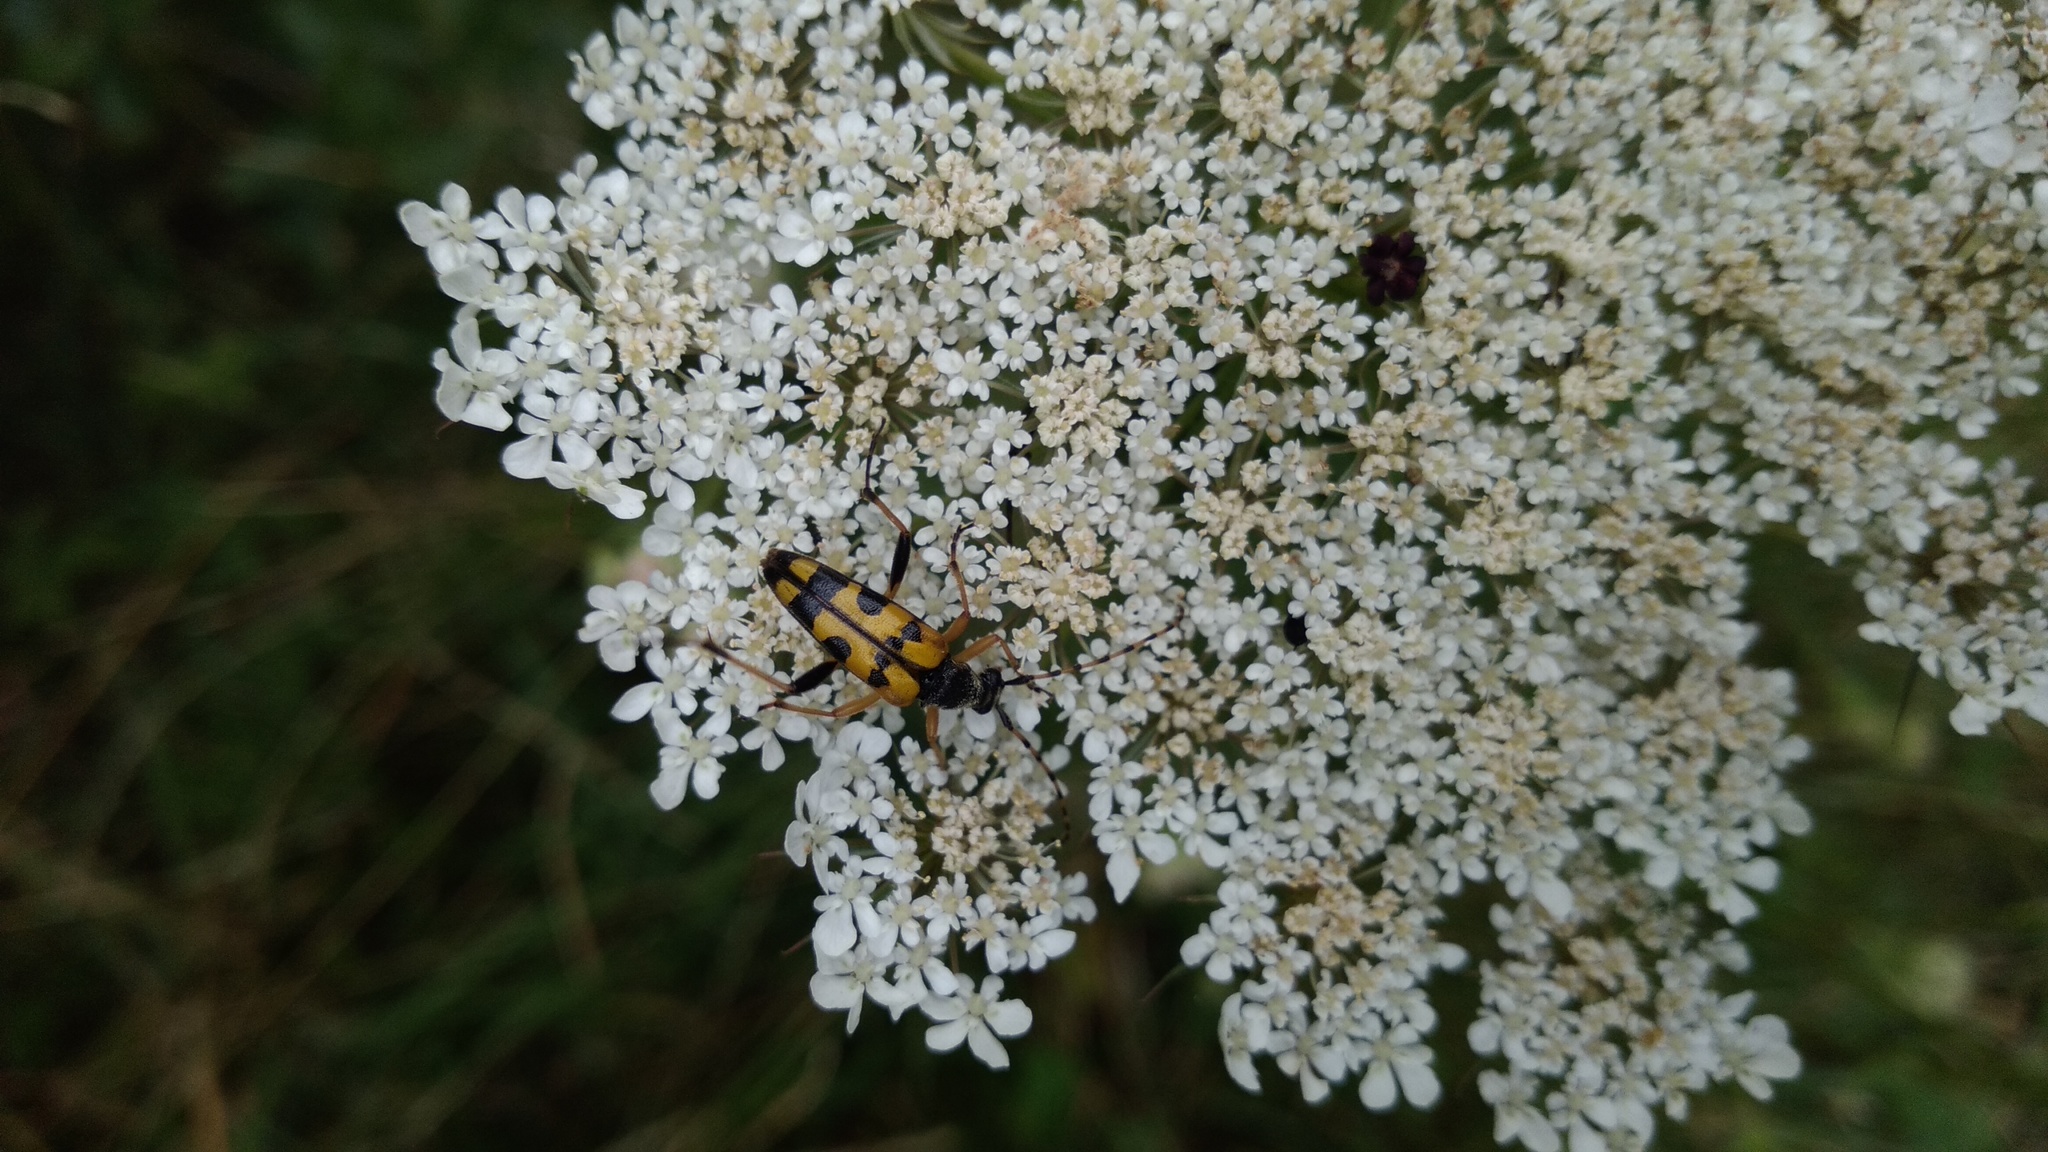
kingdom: Animalia
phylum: Arthropoda
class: Insecta
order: Coleoptera
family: Cerambycidae
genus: Rutpela
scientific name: Rutpela maculata
